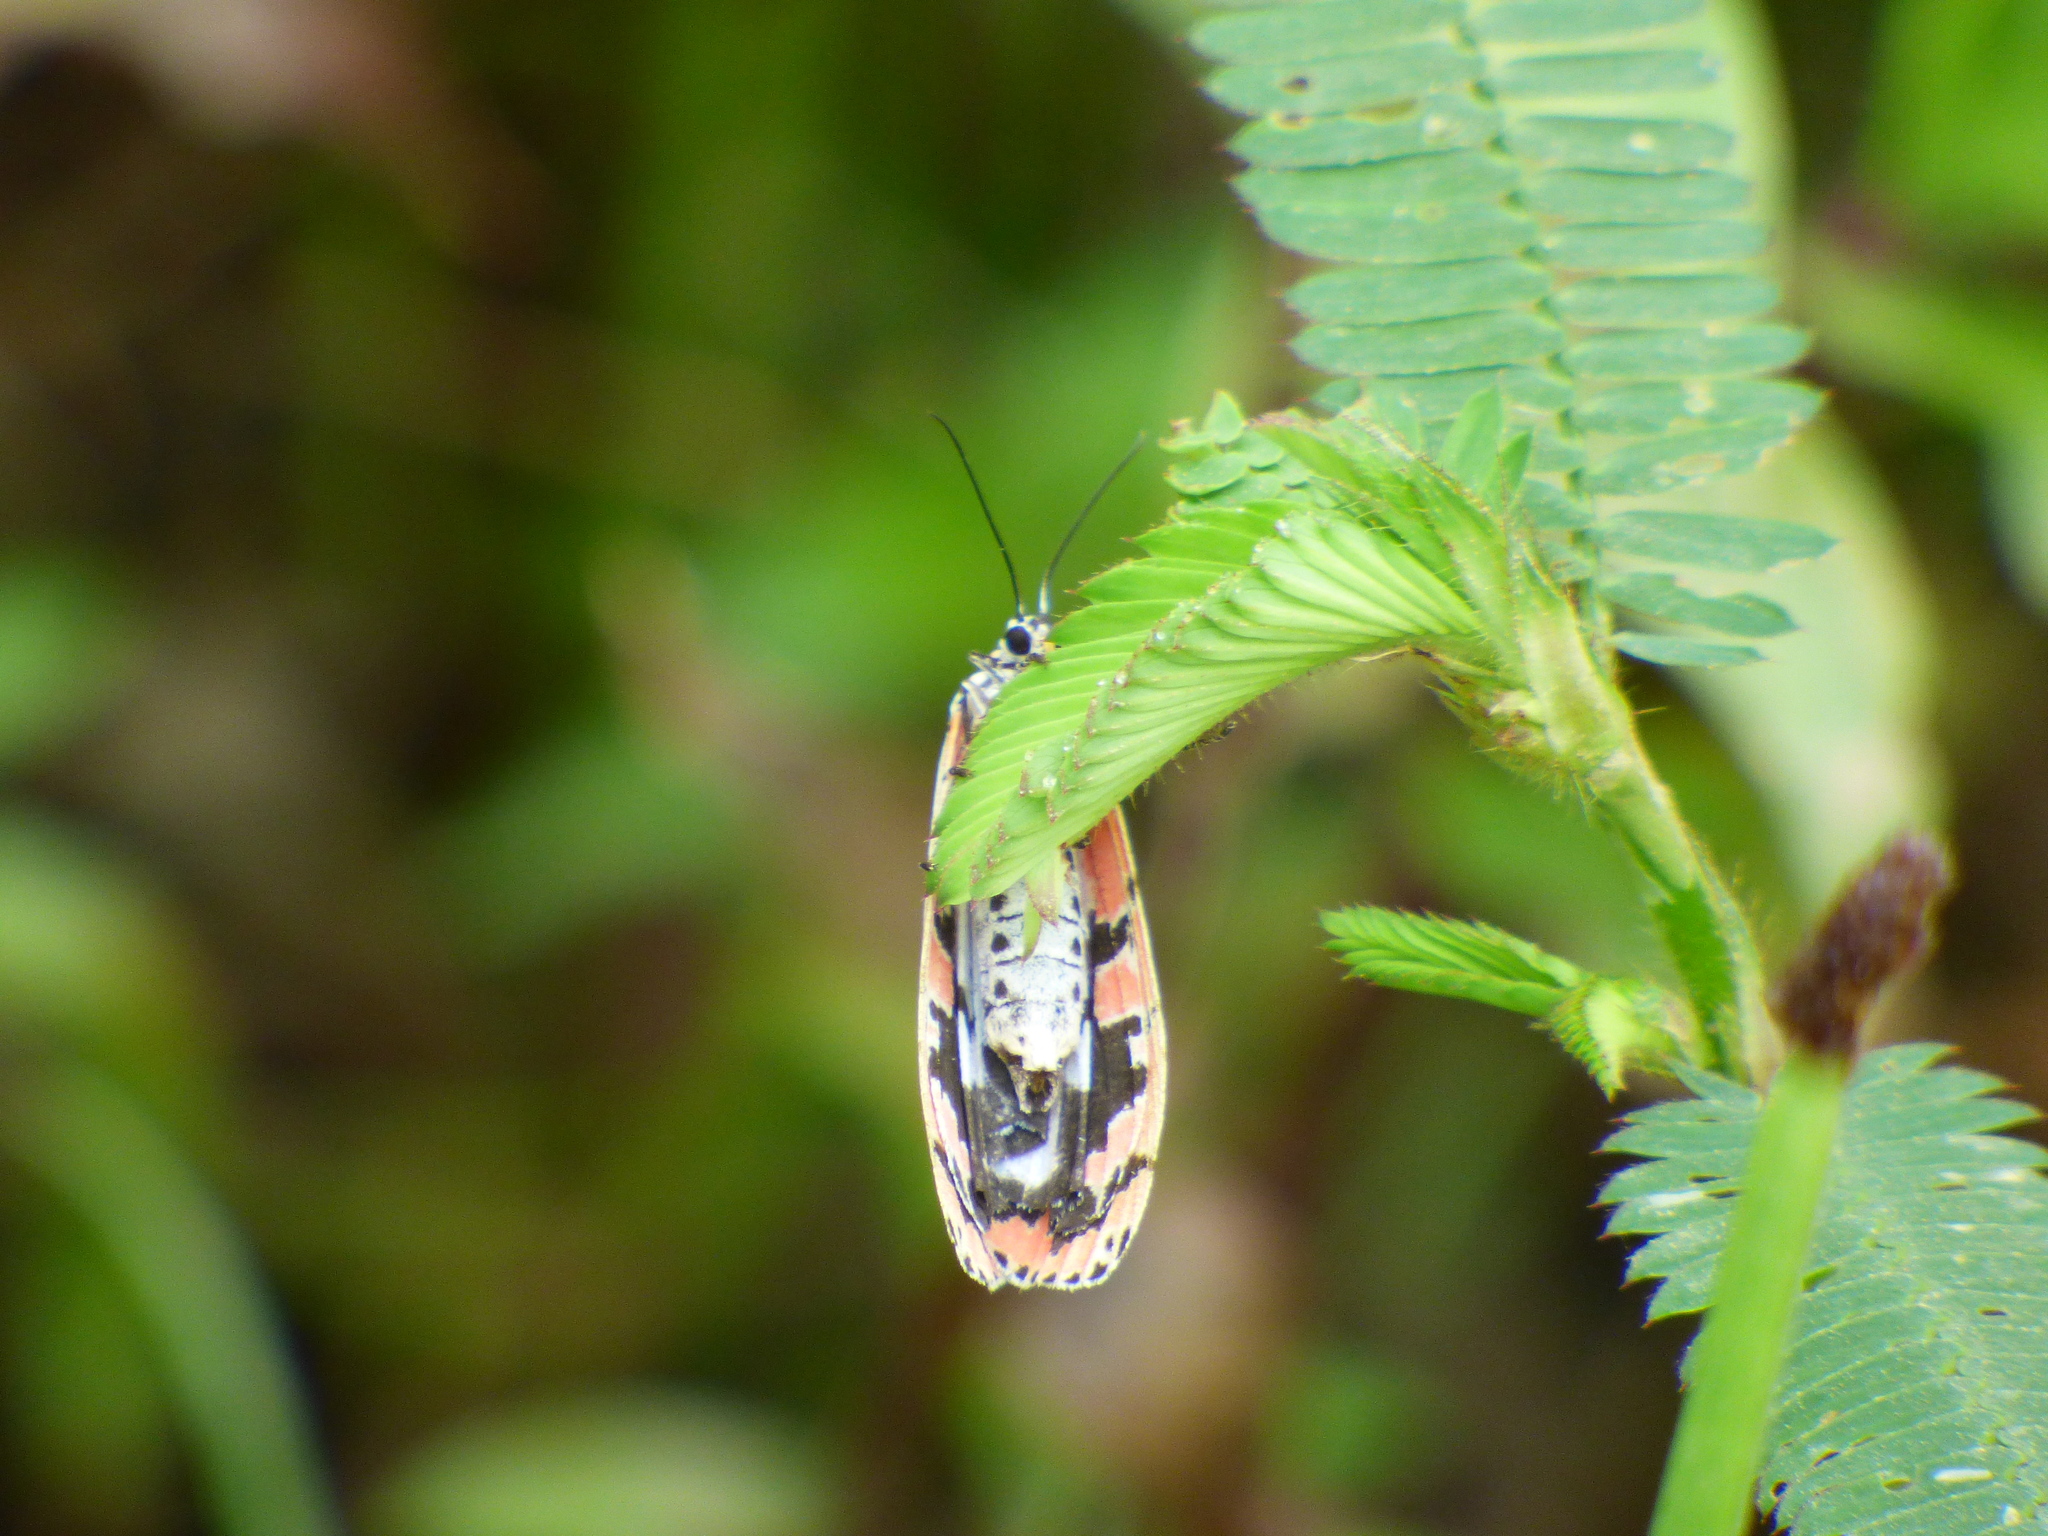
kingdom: Animalia
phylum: Arthropoda
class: Insecta
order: Lepidoptera
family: Erebidae
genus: Utetheisa
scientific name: Utetheisa ornatrix
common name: Beautiful utetheisa
